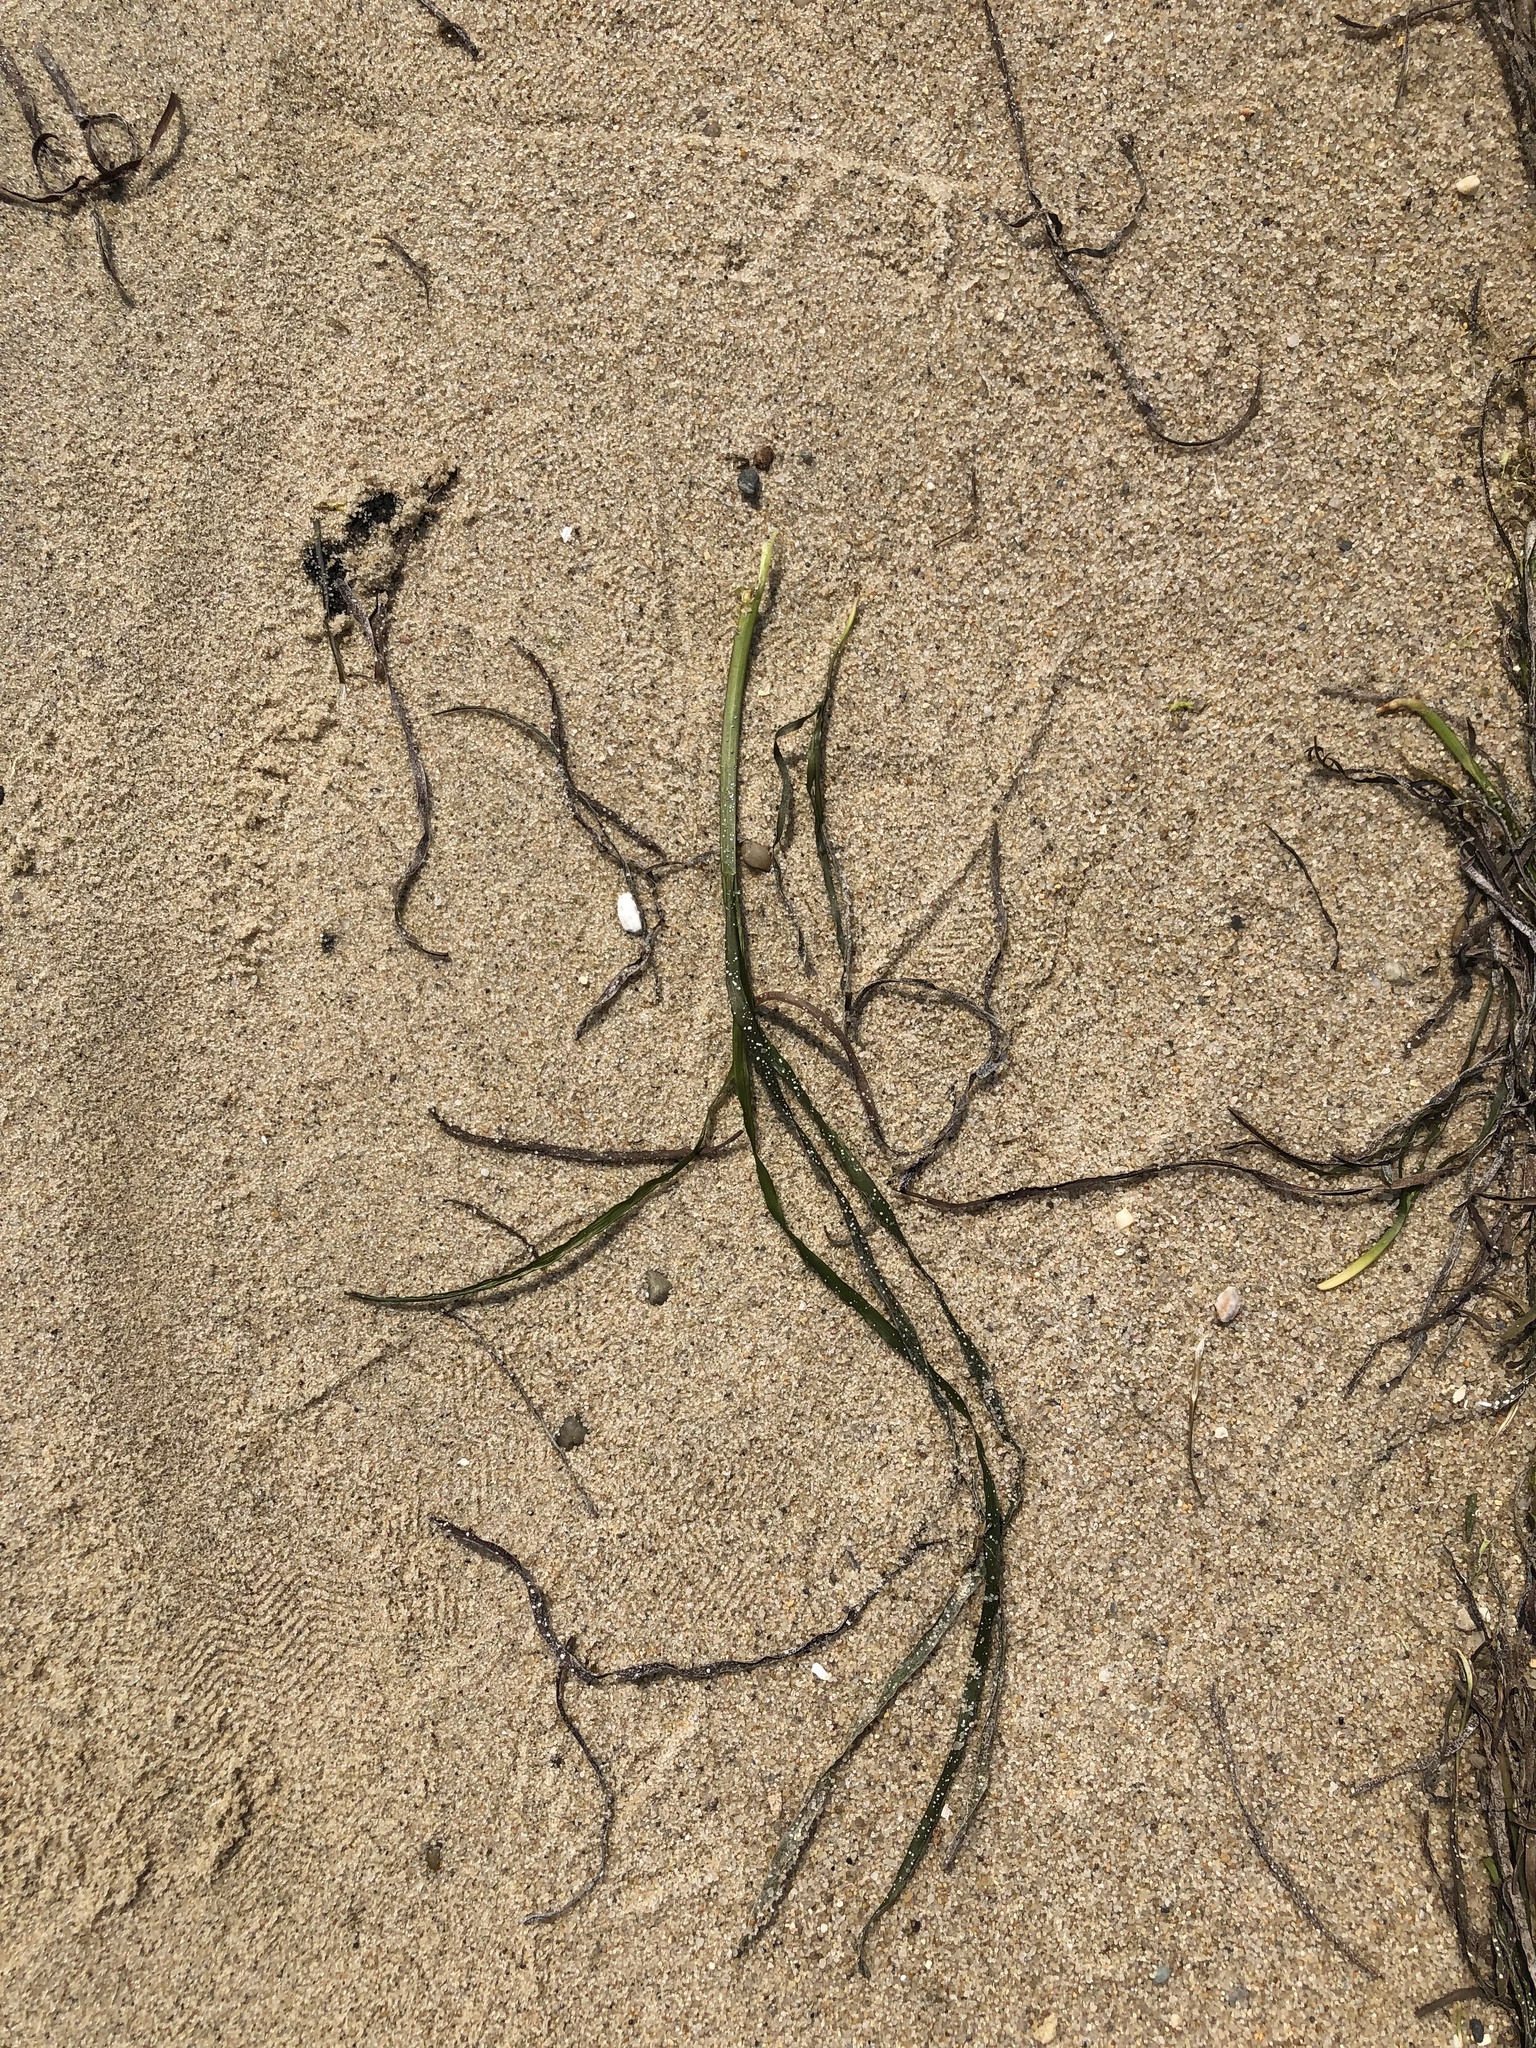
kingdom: Plantae
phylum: Tracheophyta
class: Liliopsida
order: Alismatales
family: Zosteraceae
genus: Zostera
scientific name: Zostera marina
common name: Eelgrass
